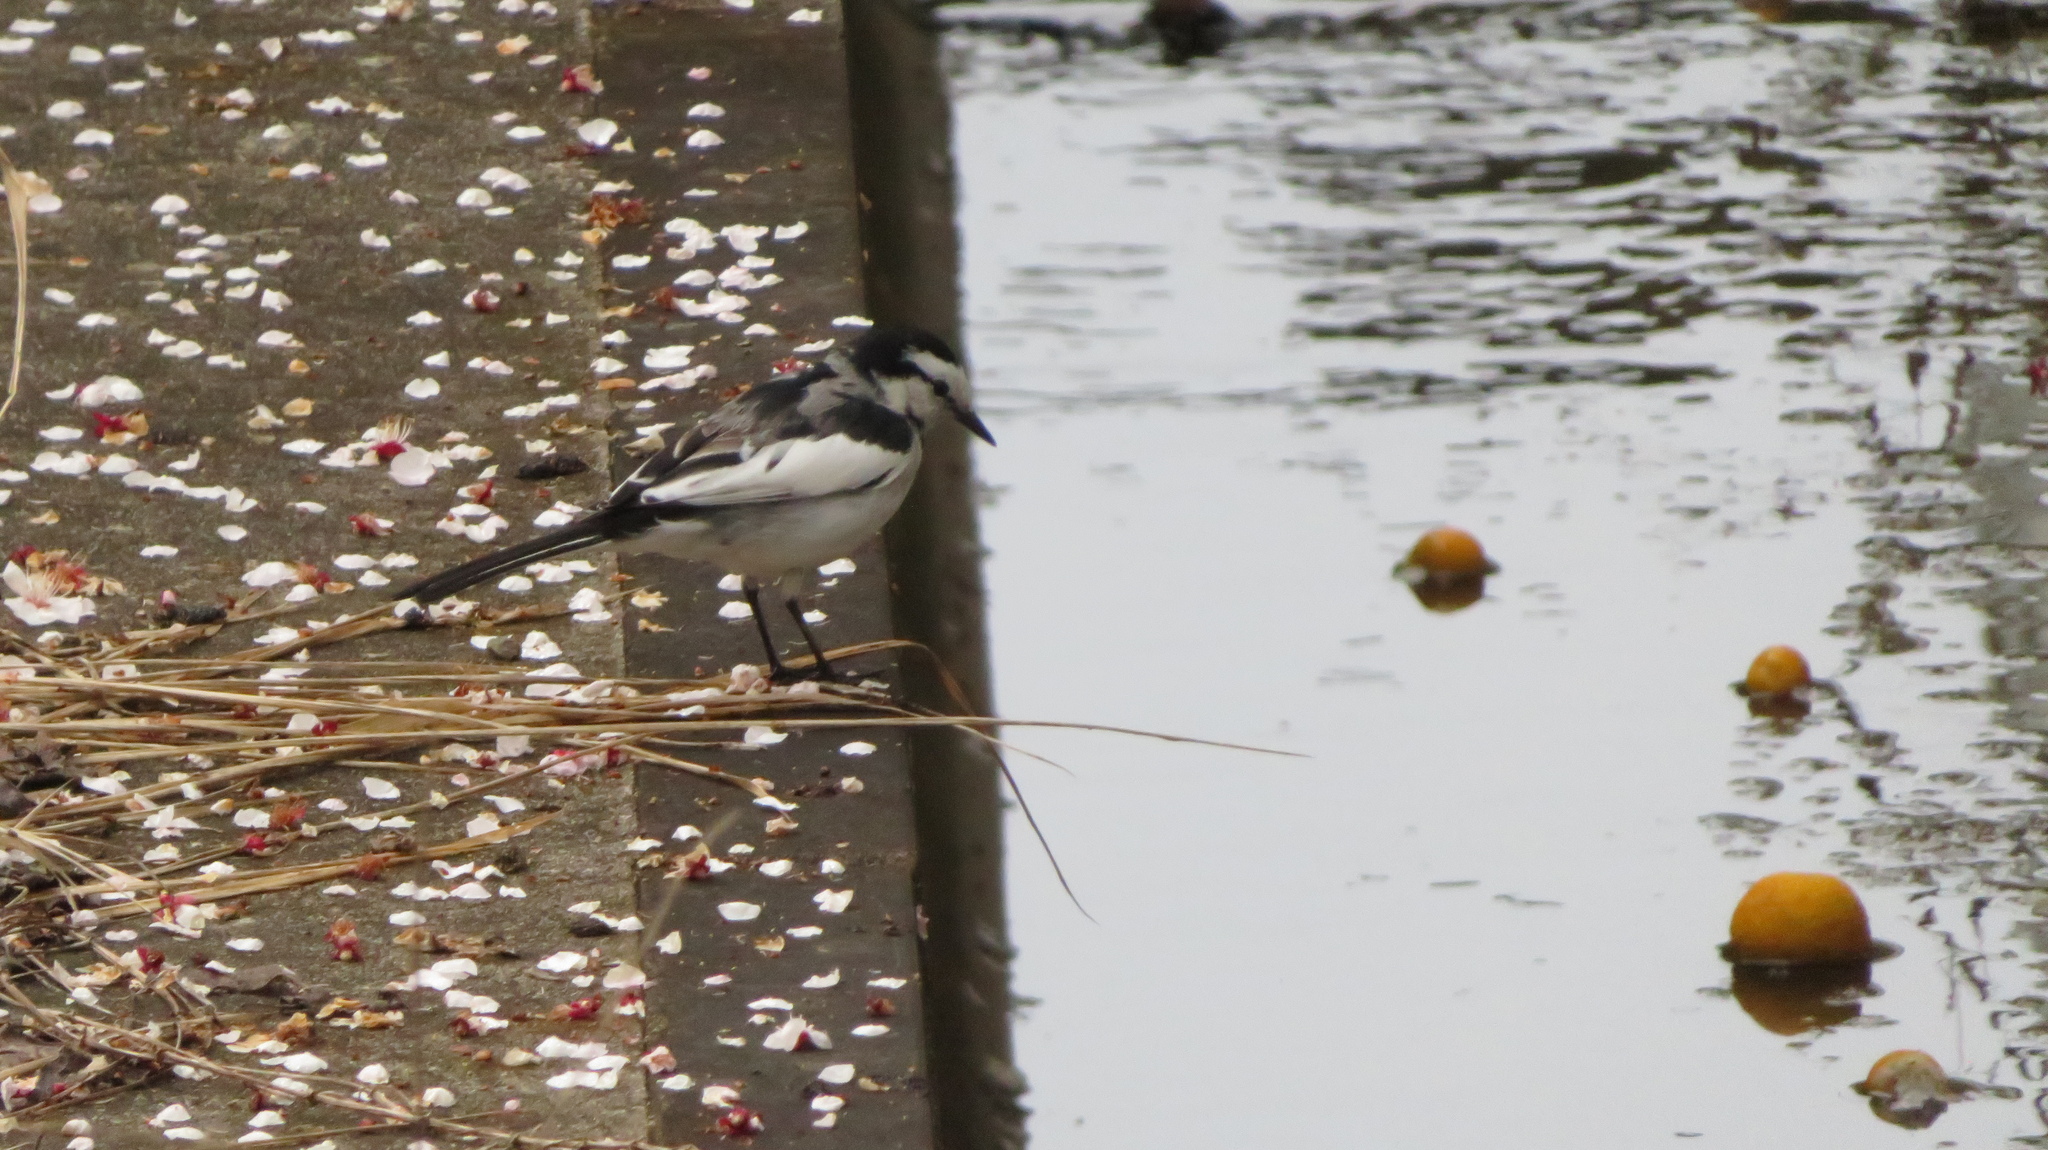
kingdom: Animalia
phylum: Chordata
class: Aves
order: Passeriformes
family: Motacillidae
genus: Motacilla
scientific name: Motacilla alba
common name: White wagtail
